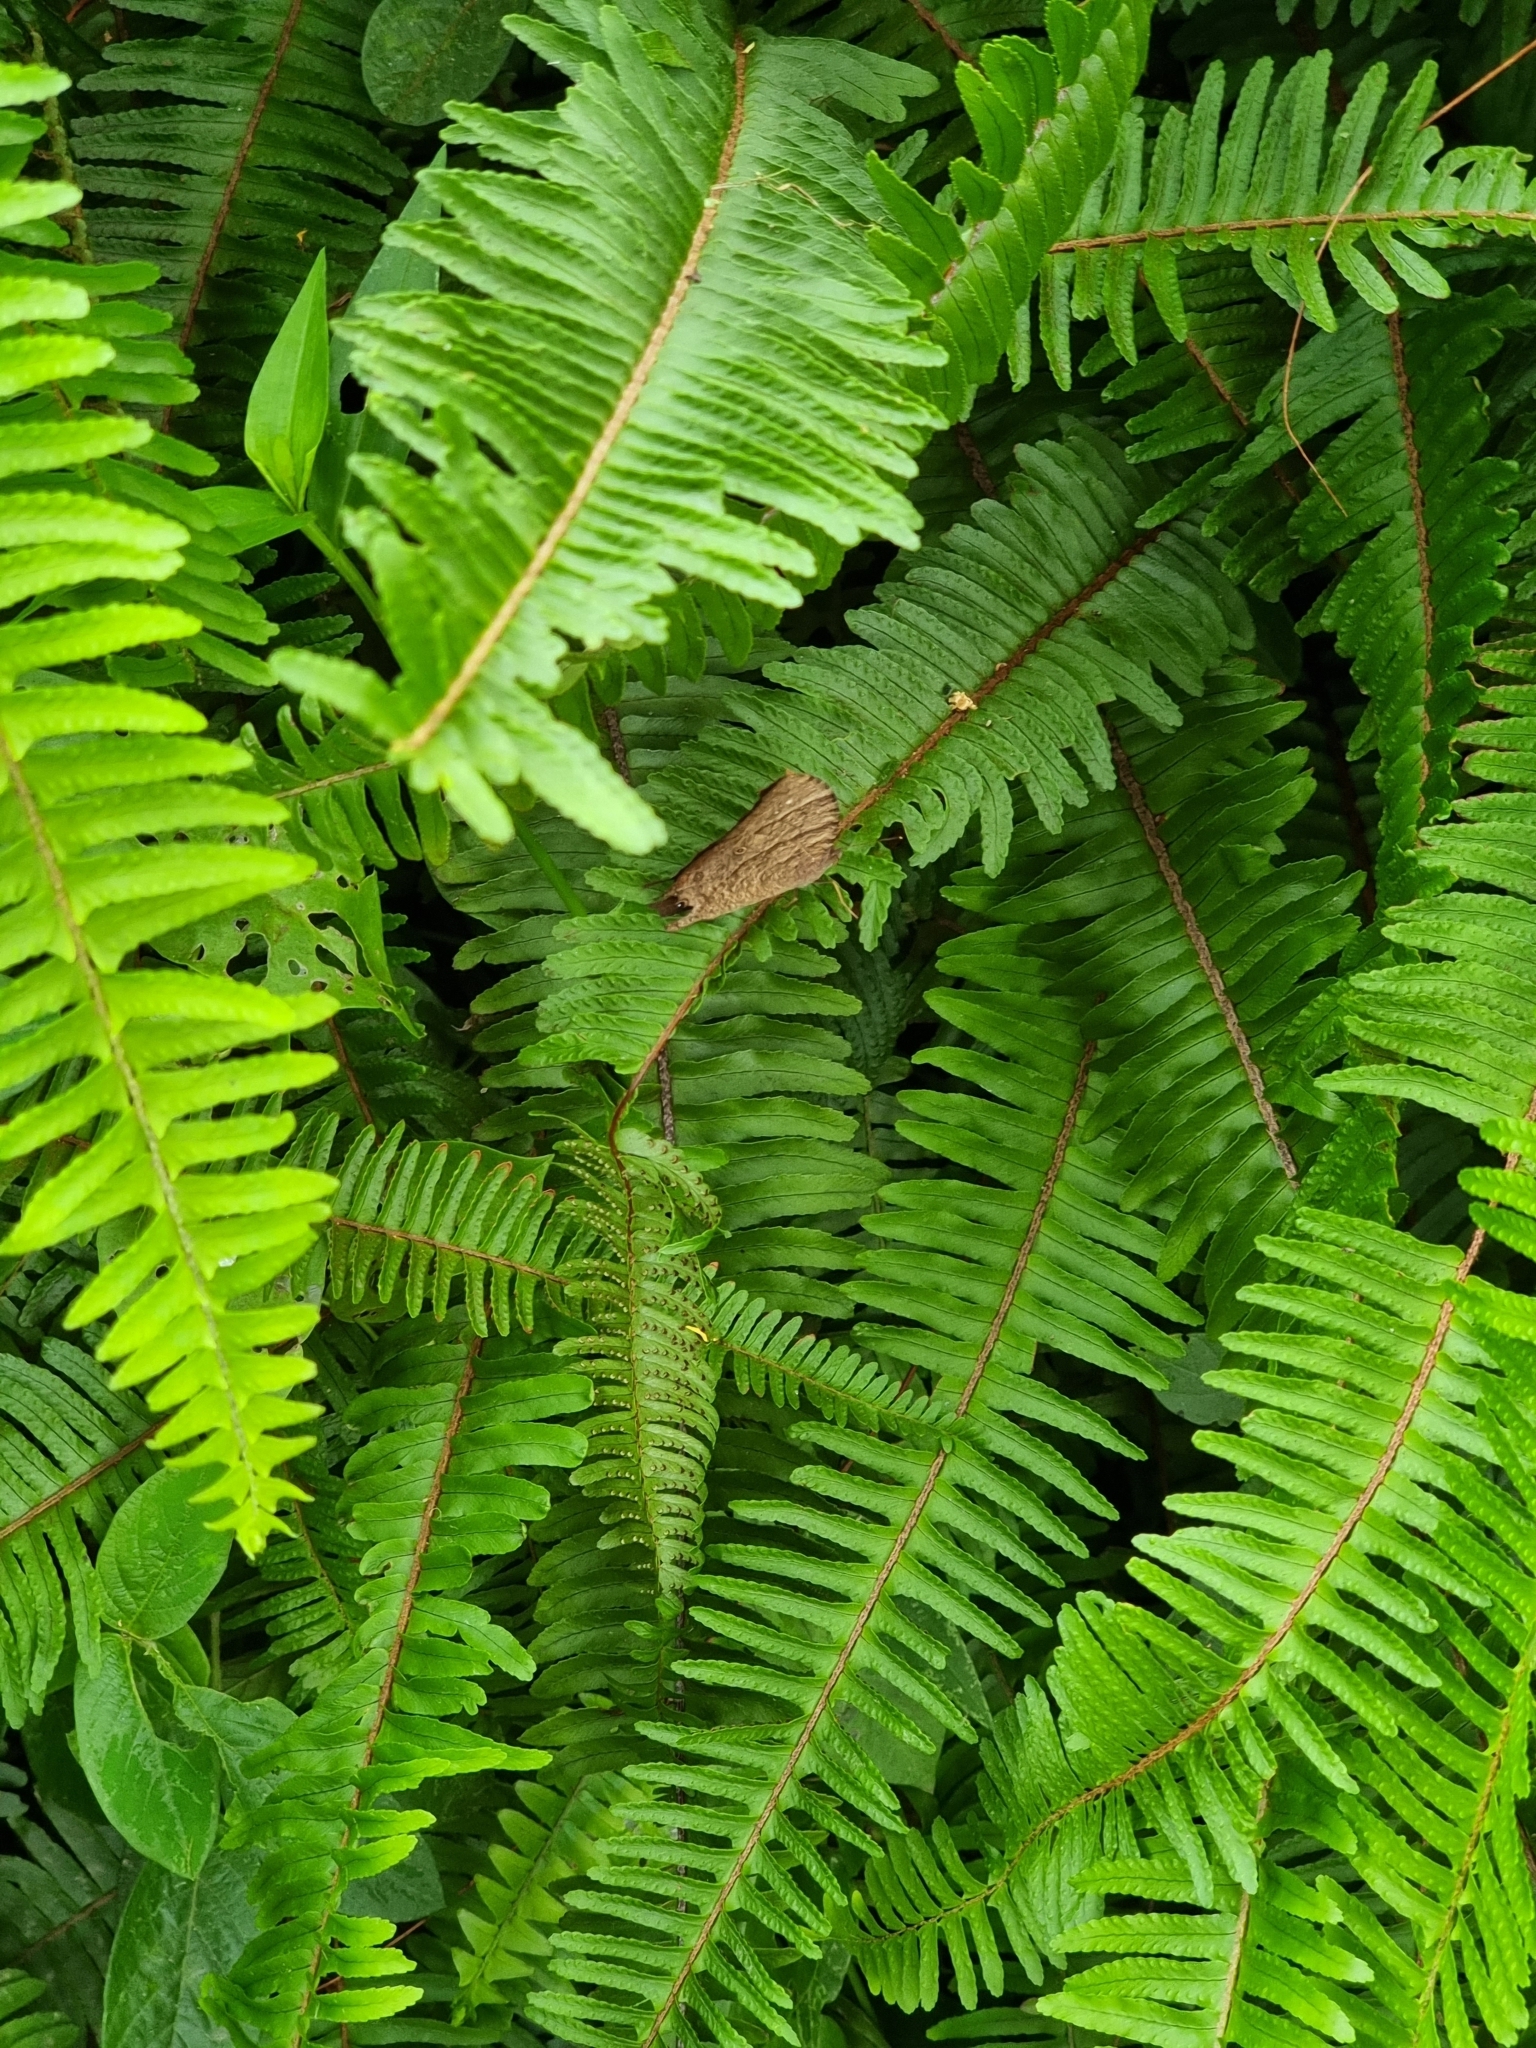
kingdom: Animalia
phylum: Arthropoda
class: Insecta
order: Lepidoptera
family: Nymphalidae
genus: Melanitis
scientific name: Melanitis leda
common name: Twilight brown
